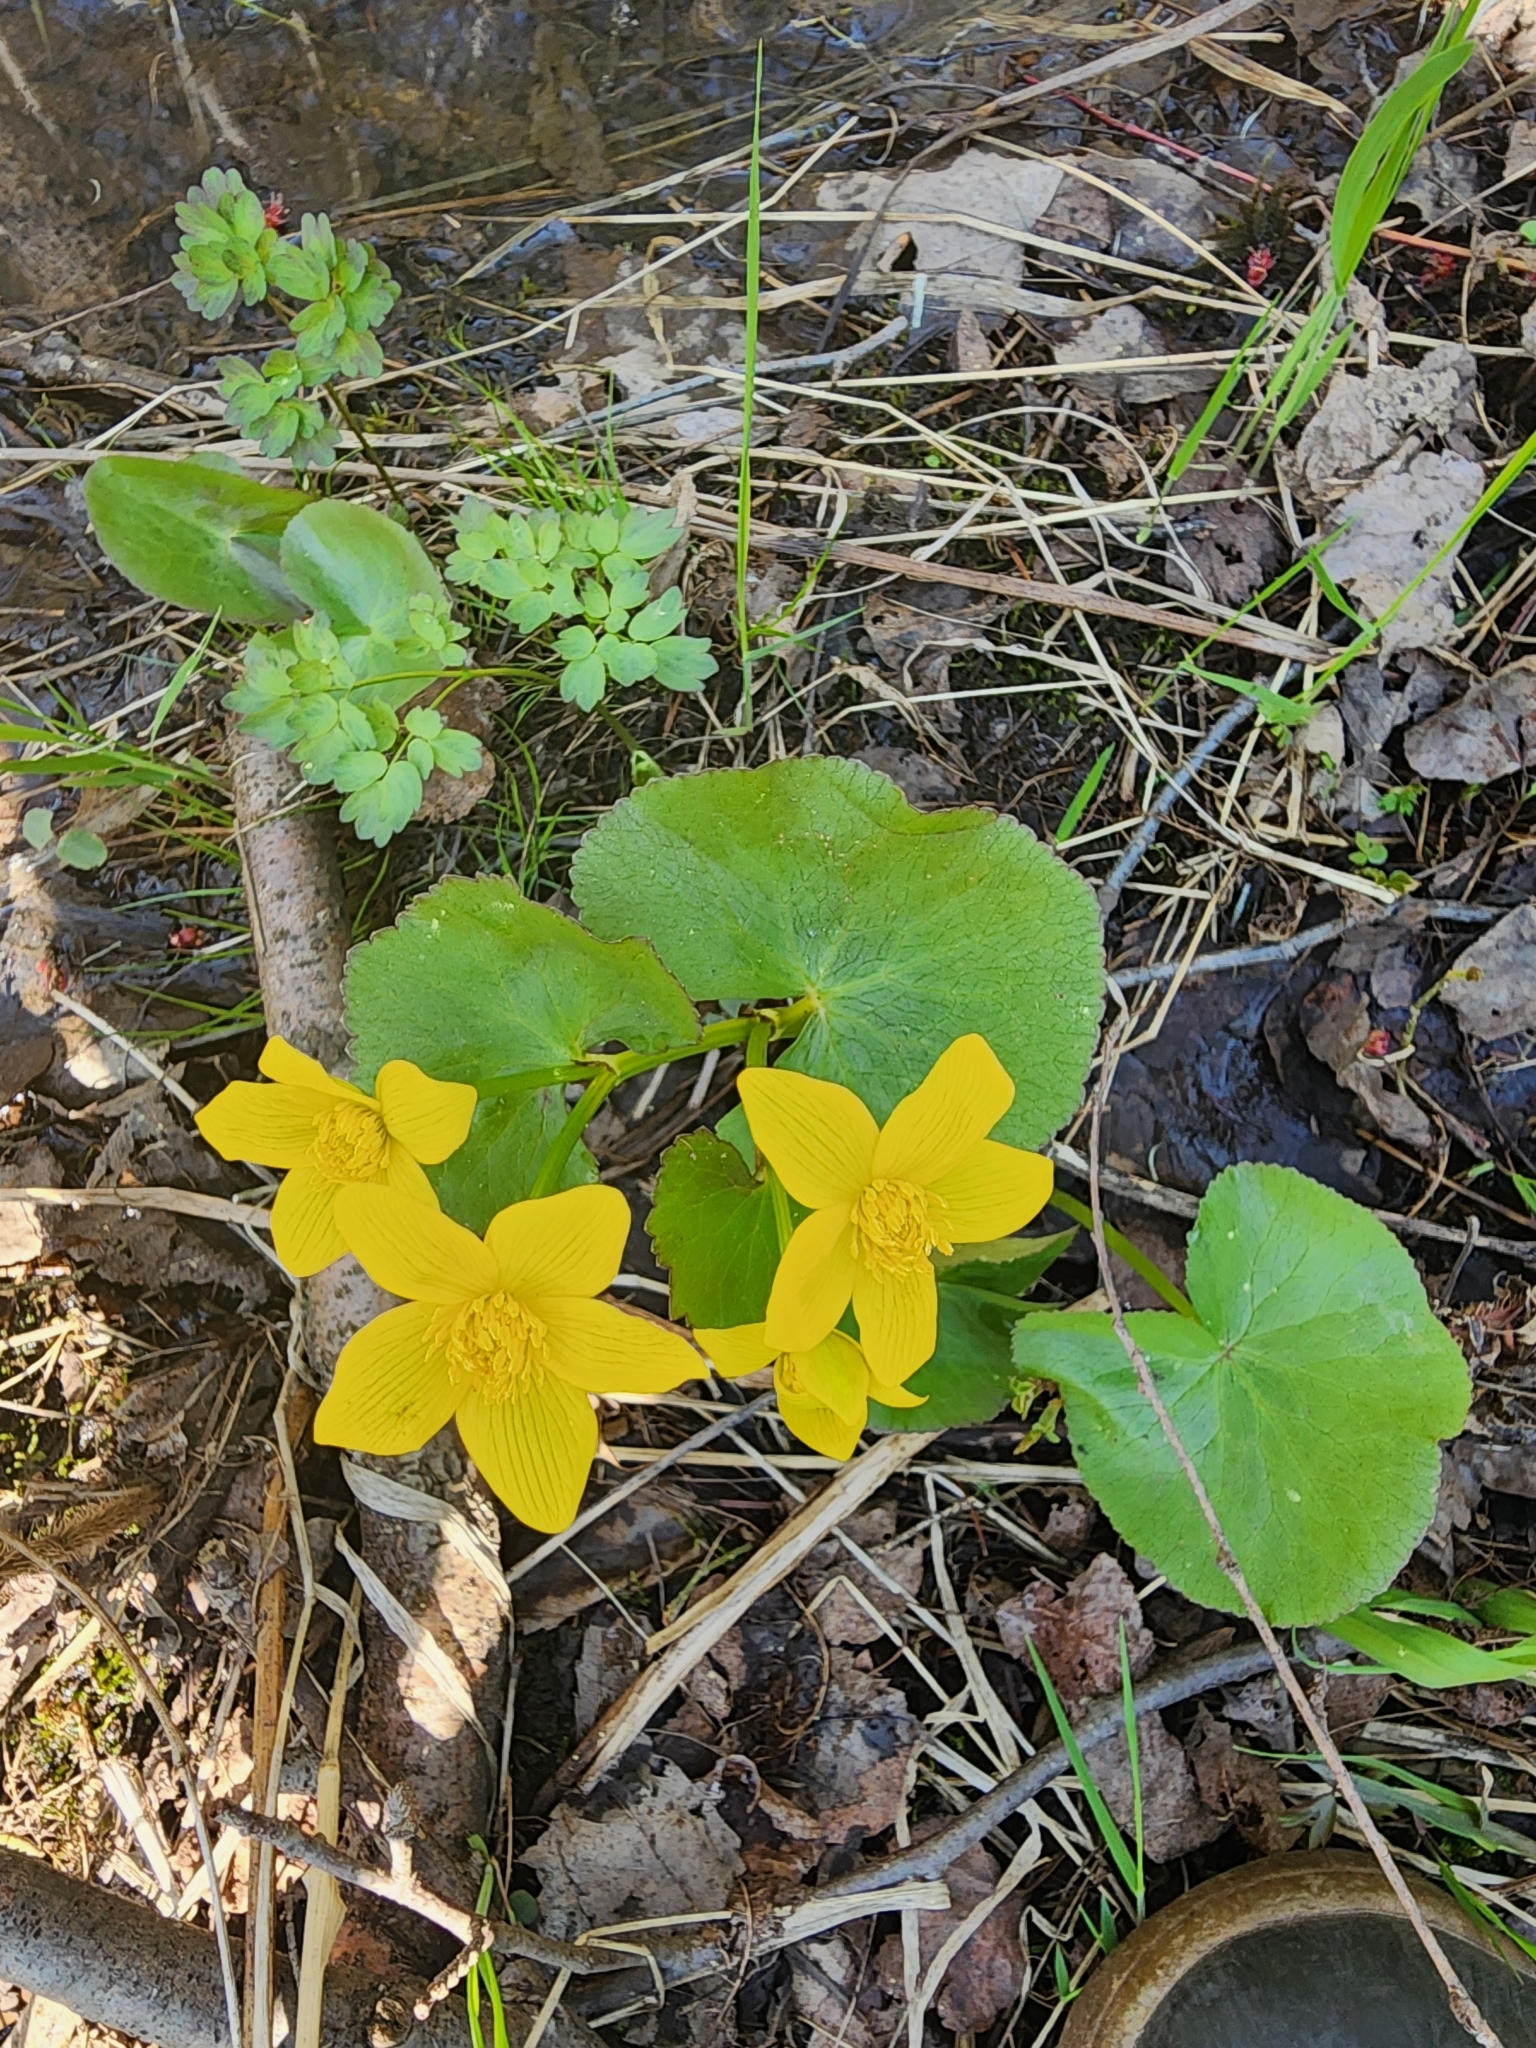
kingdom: Plantae
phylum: Tracheophyta
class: Magnoliopsida
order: Ranunculales
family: Ranunculaceae
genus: Caltha
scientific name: Caltha palustris
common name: Marsh marigold
